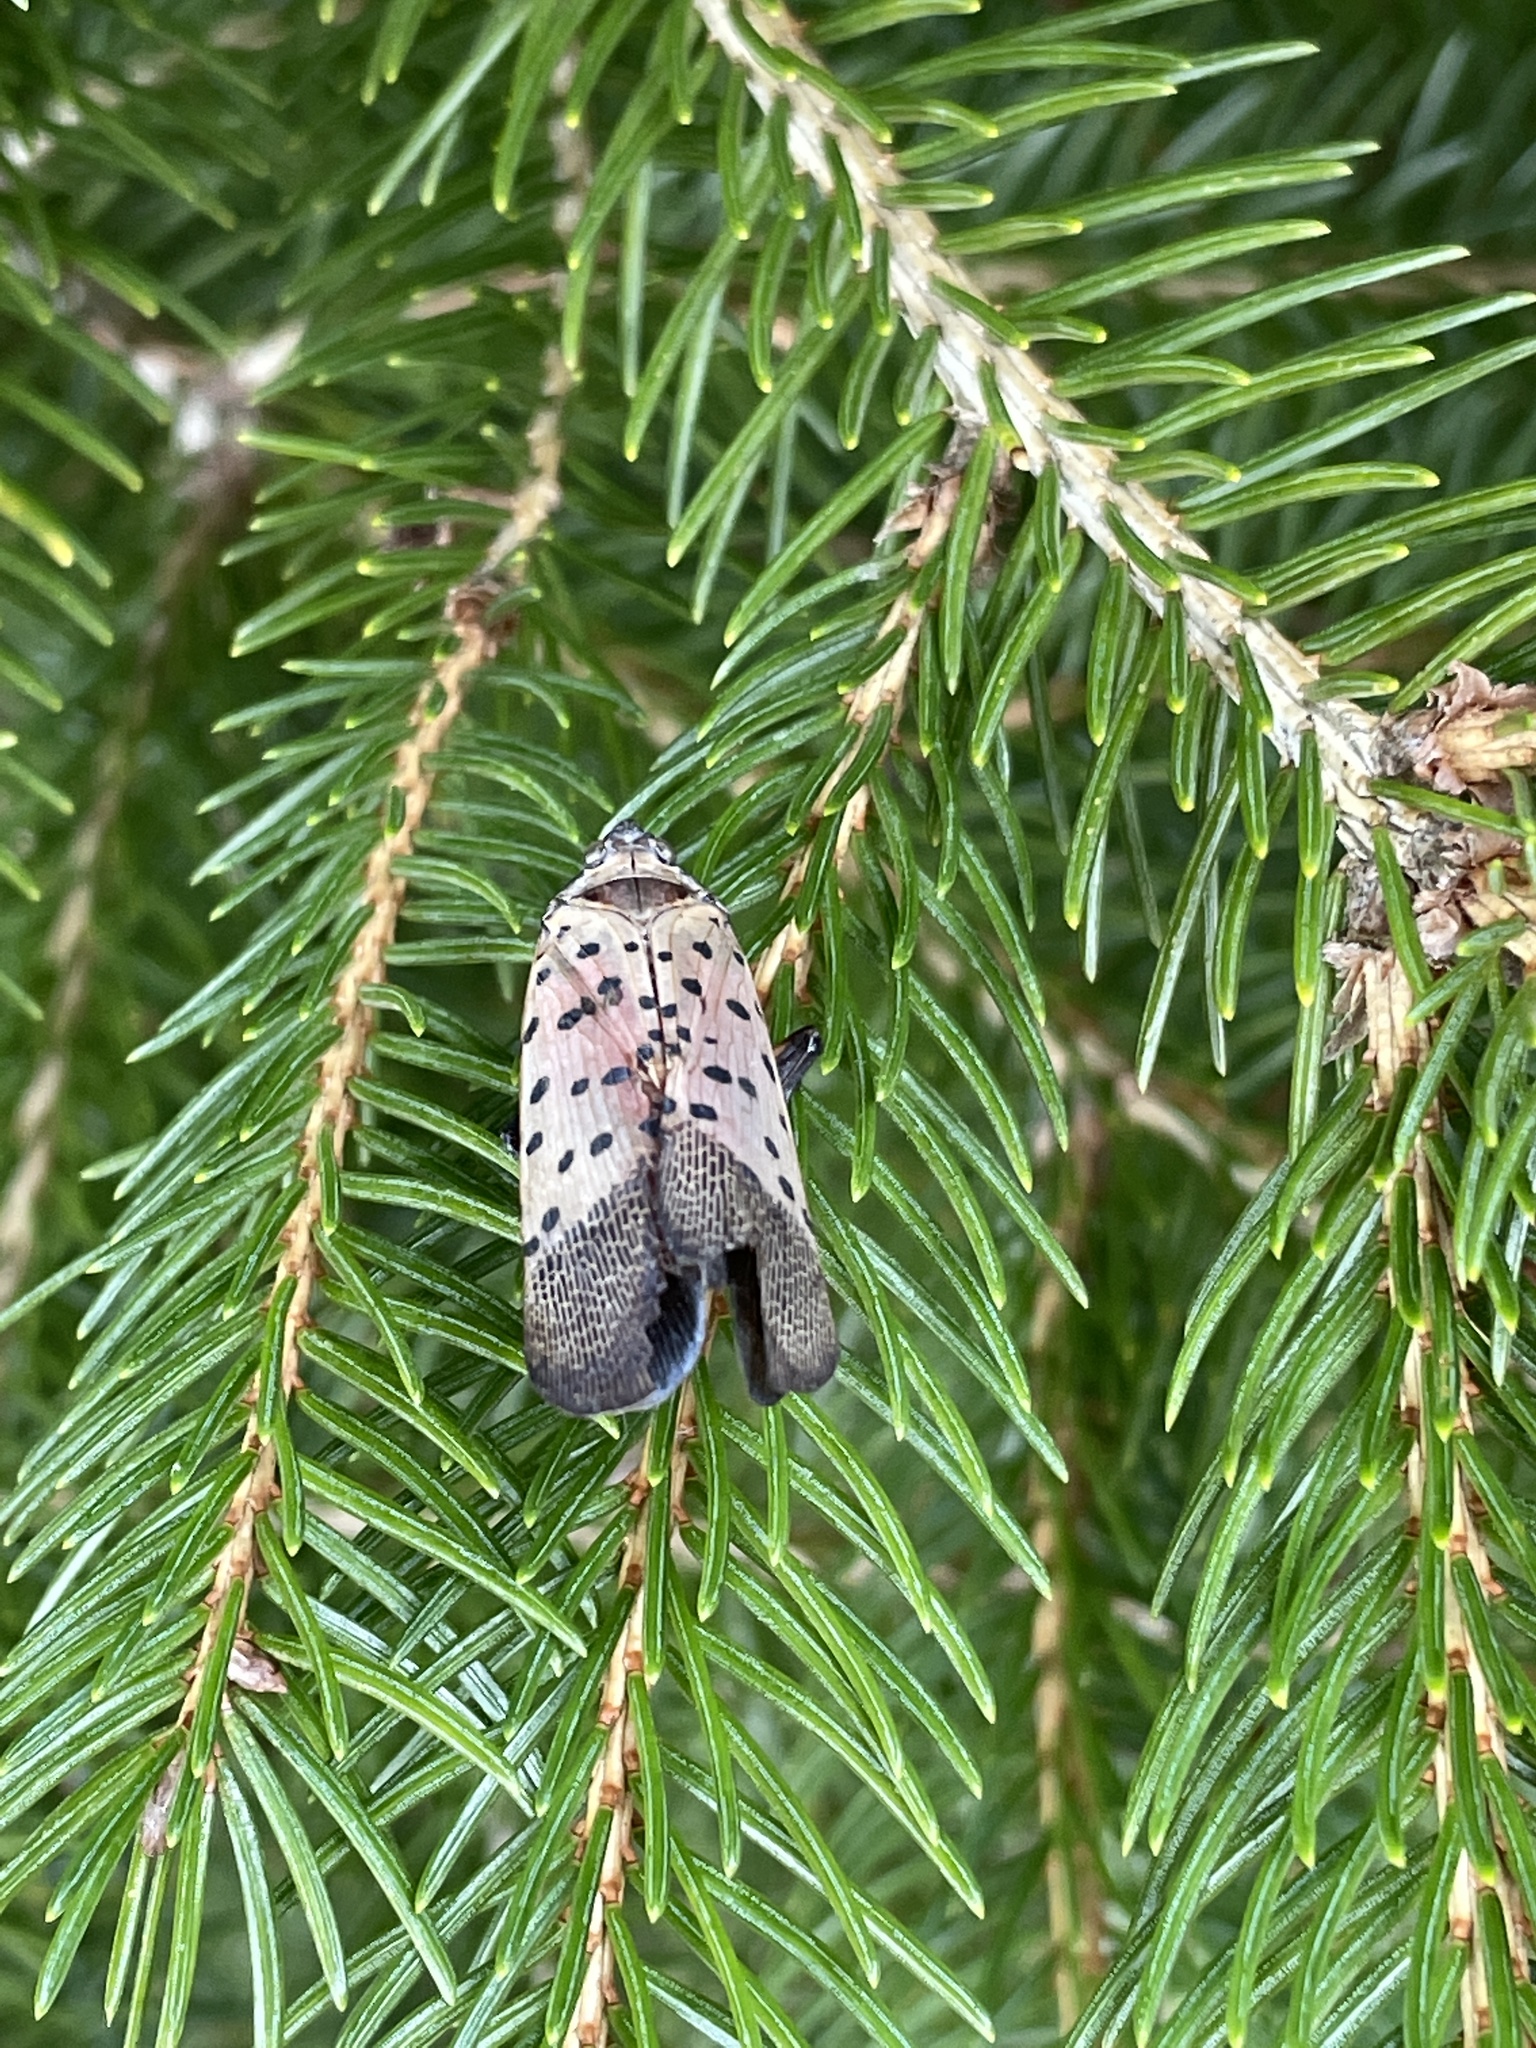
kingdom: Animalia
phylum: Arthropoda
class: Insecta
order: Hemiptera
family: Fulgoridae
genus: Lycorma
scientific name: Lycorma delicatula
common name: Spotted lanternfly
